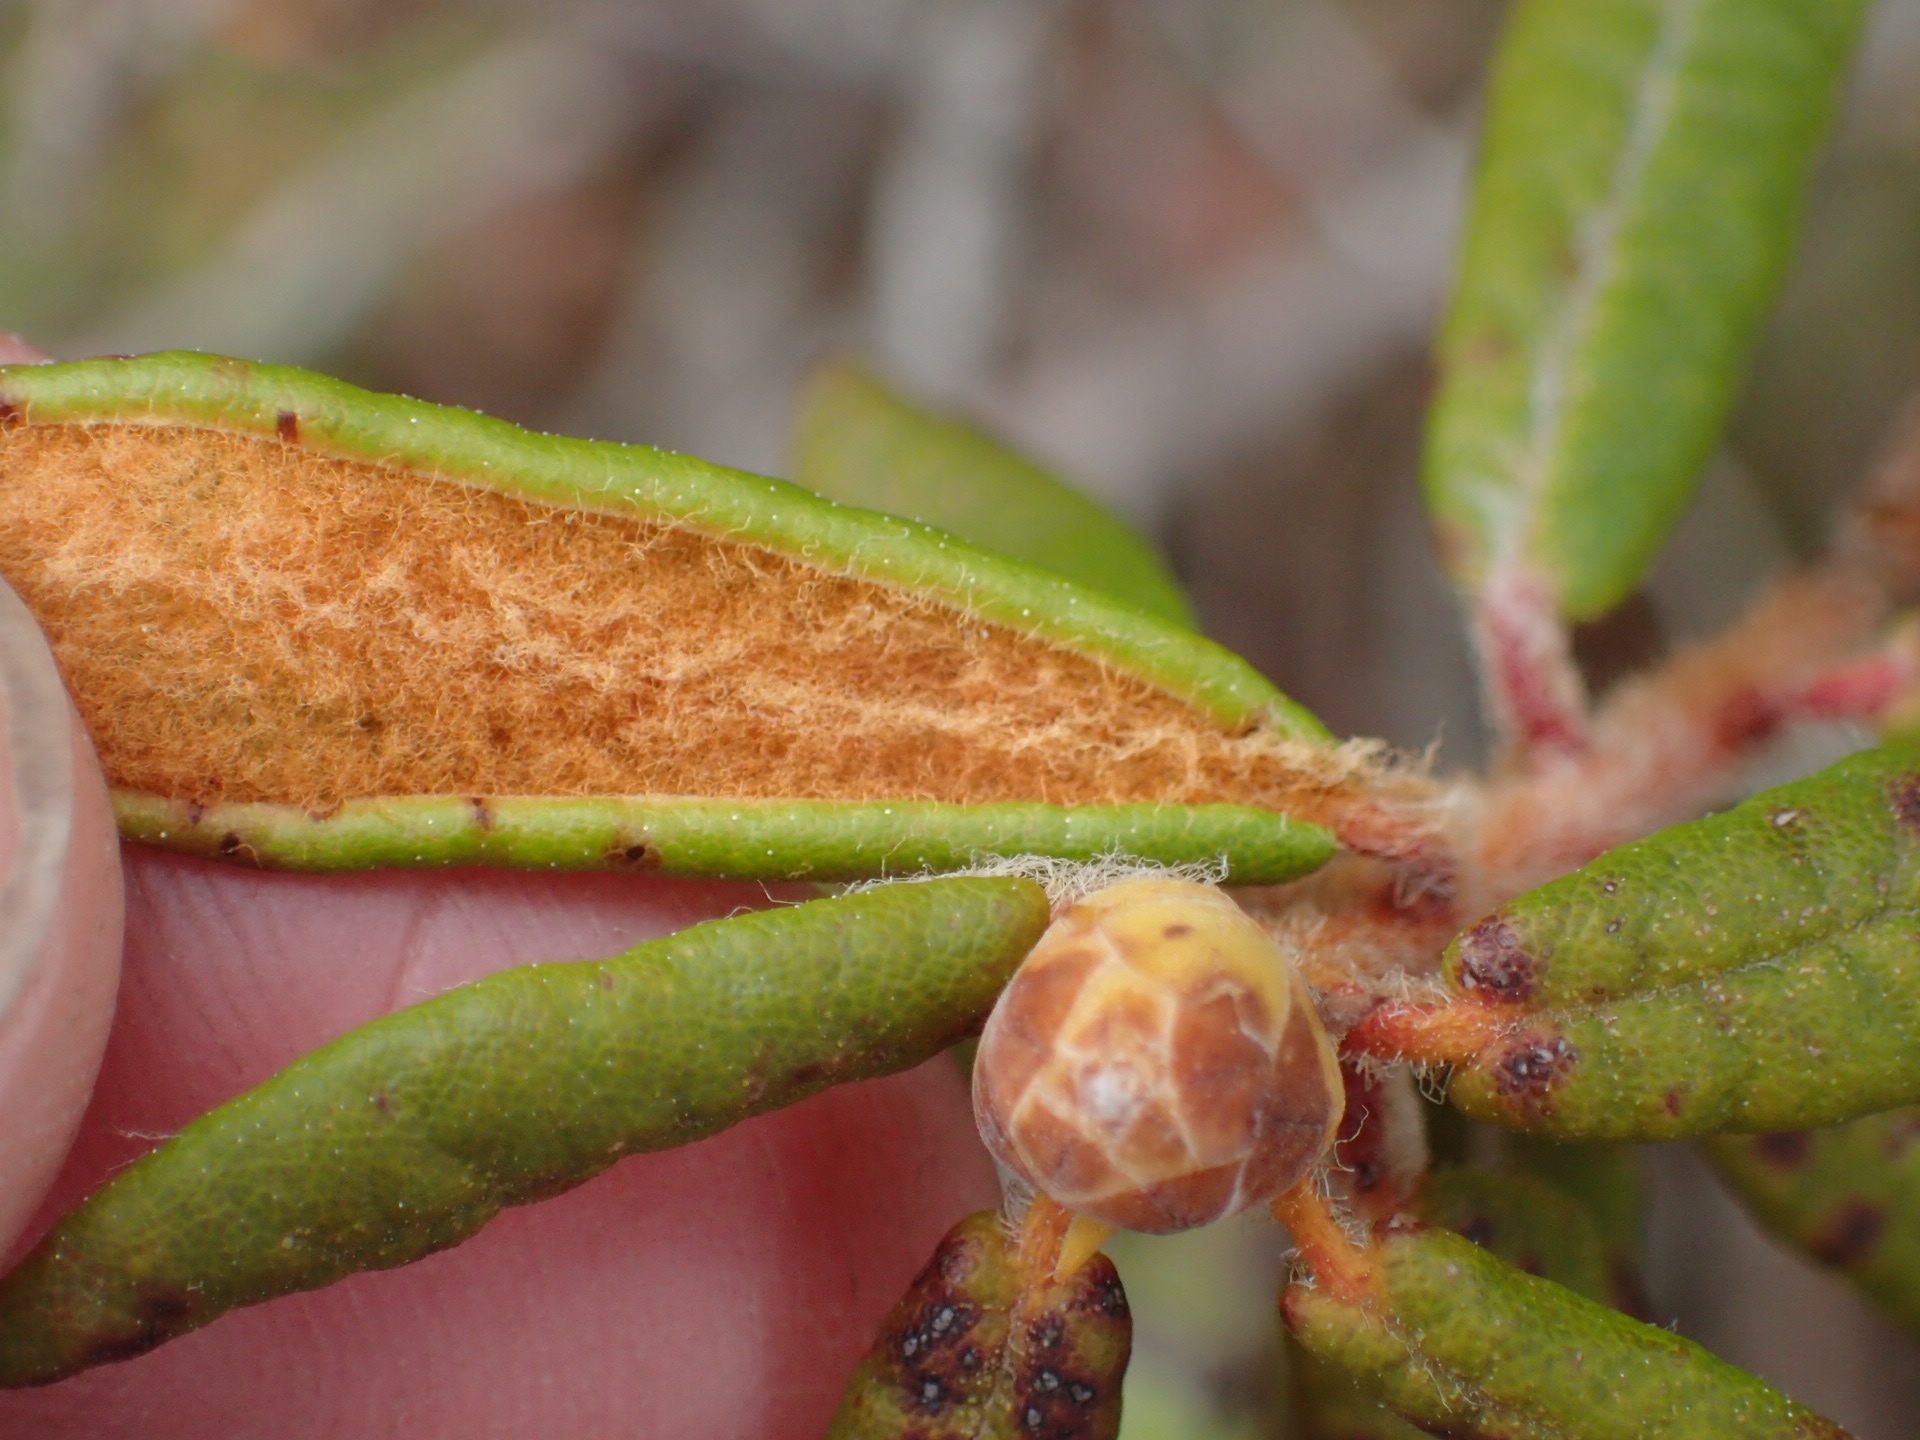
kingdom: Plantae
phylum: Tracheophyta
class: Magnoliopsida
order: Ericales
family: Ericaceae
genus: Rhododendron
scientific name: Rhododendron groenlandicum
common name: Bog labrador tea
